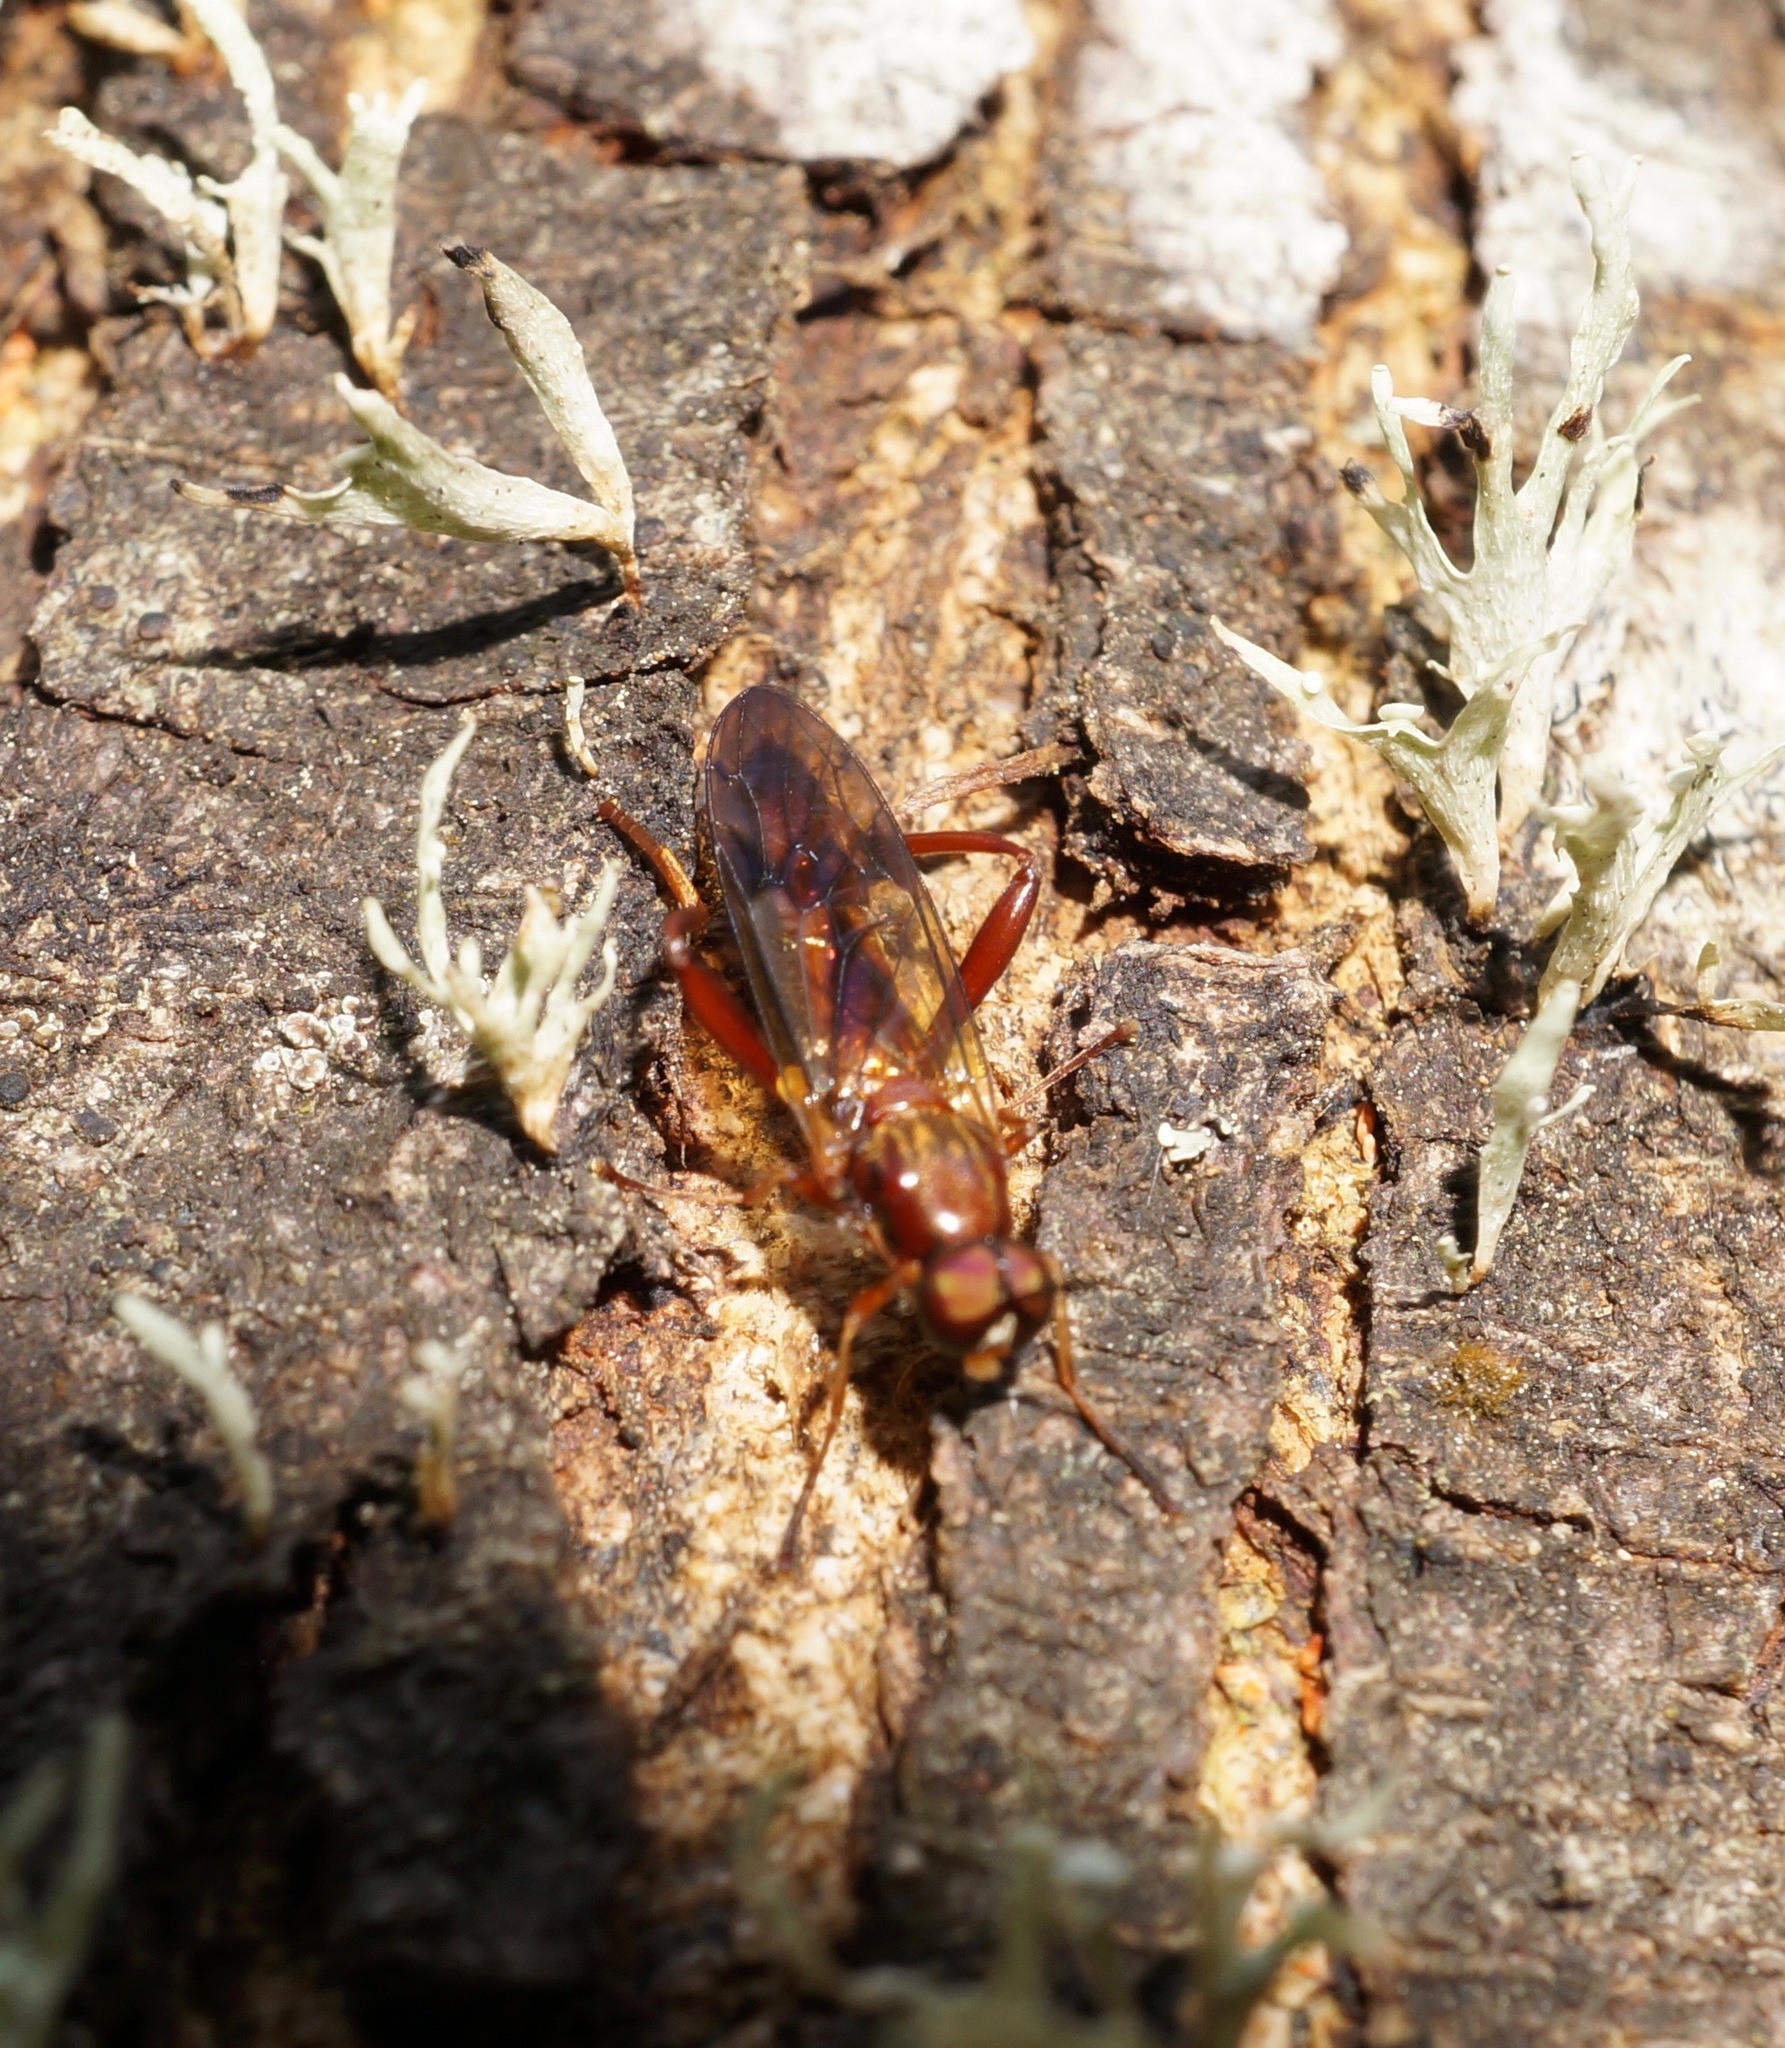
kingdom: Animalia
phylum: Arthropoda
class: Insecta
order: Diptera
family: Stratiomyidae
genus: Benhamyia
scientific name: Benhamyia straznitzkii
